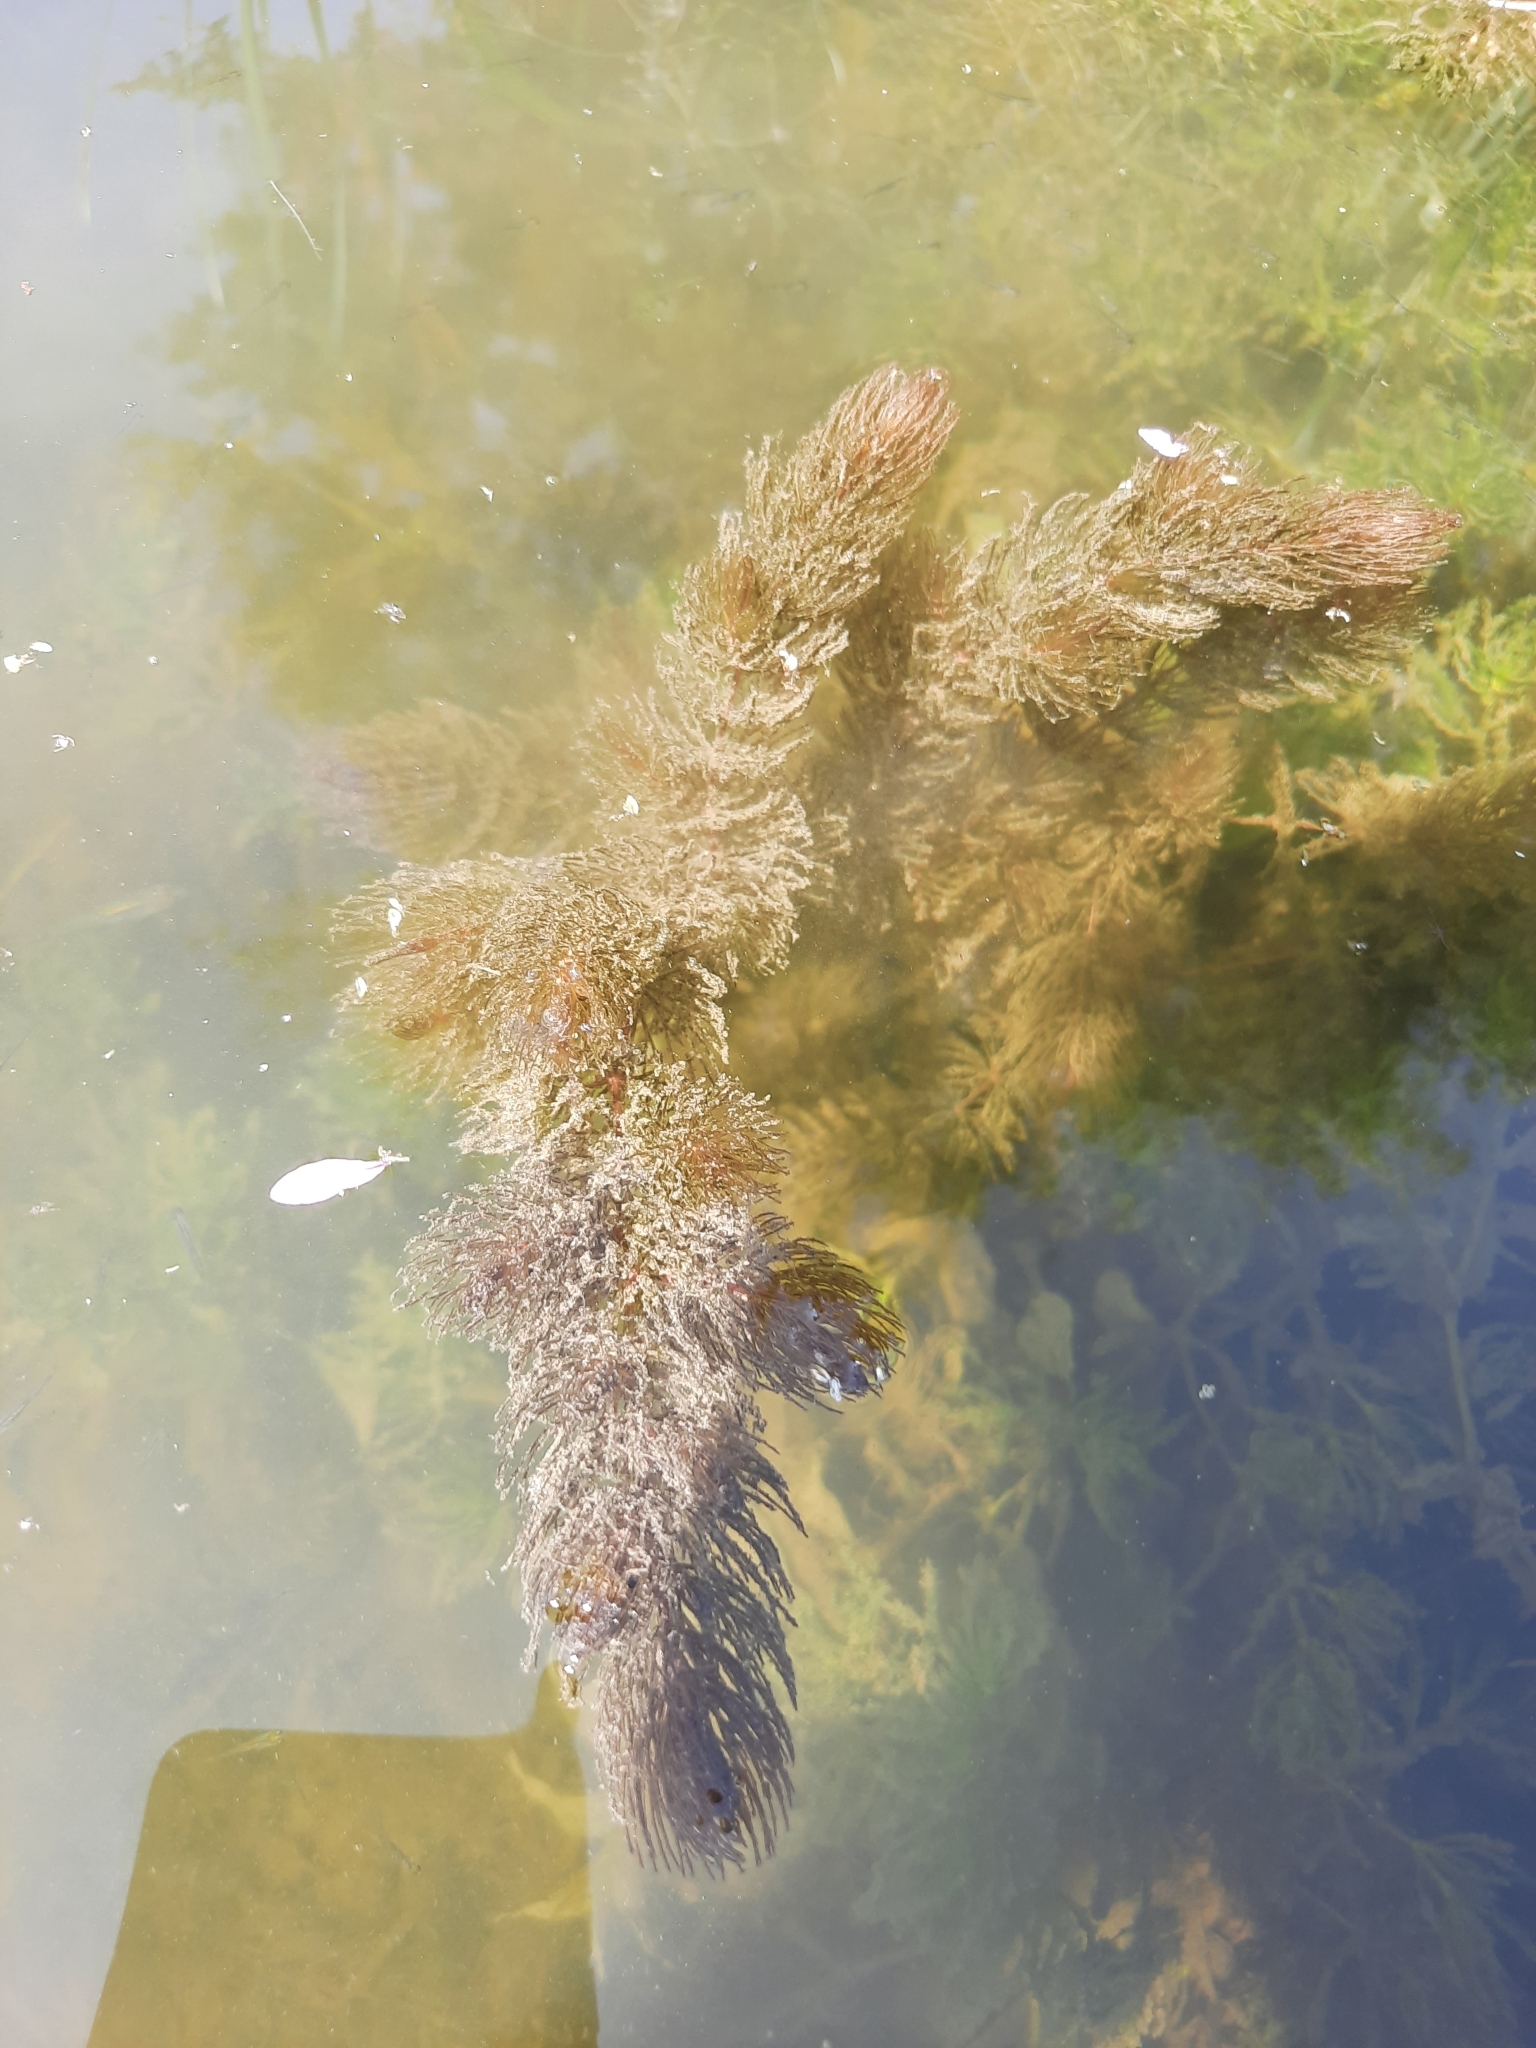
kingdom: Plantae
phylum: Tracheophyta
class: Magnoliopsida
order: Ceratophyllales
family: Ceratophyllaceae
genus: Ceratophyllum
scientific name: Ceratophyllum demersum
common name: Rigid hornwort
